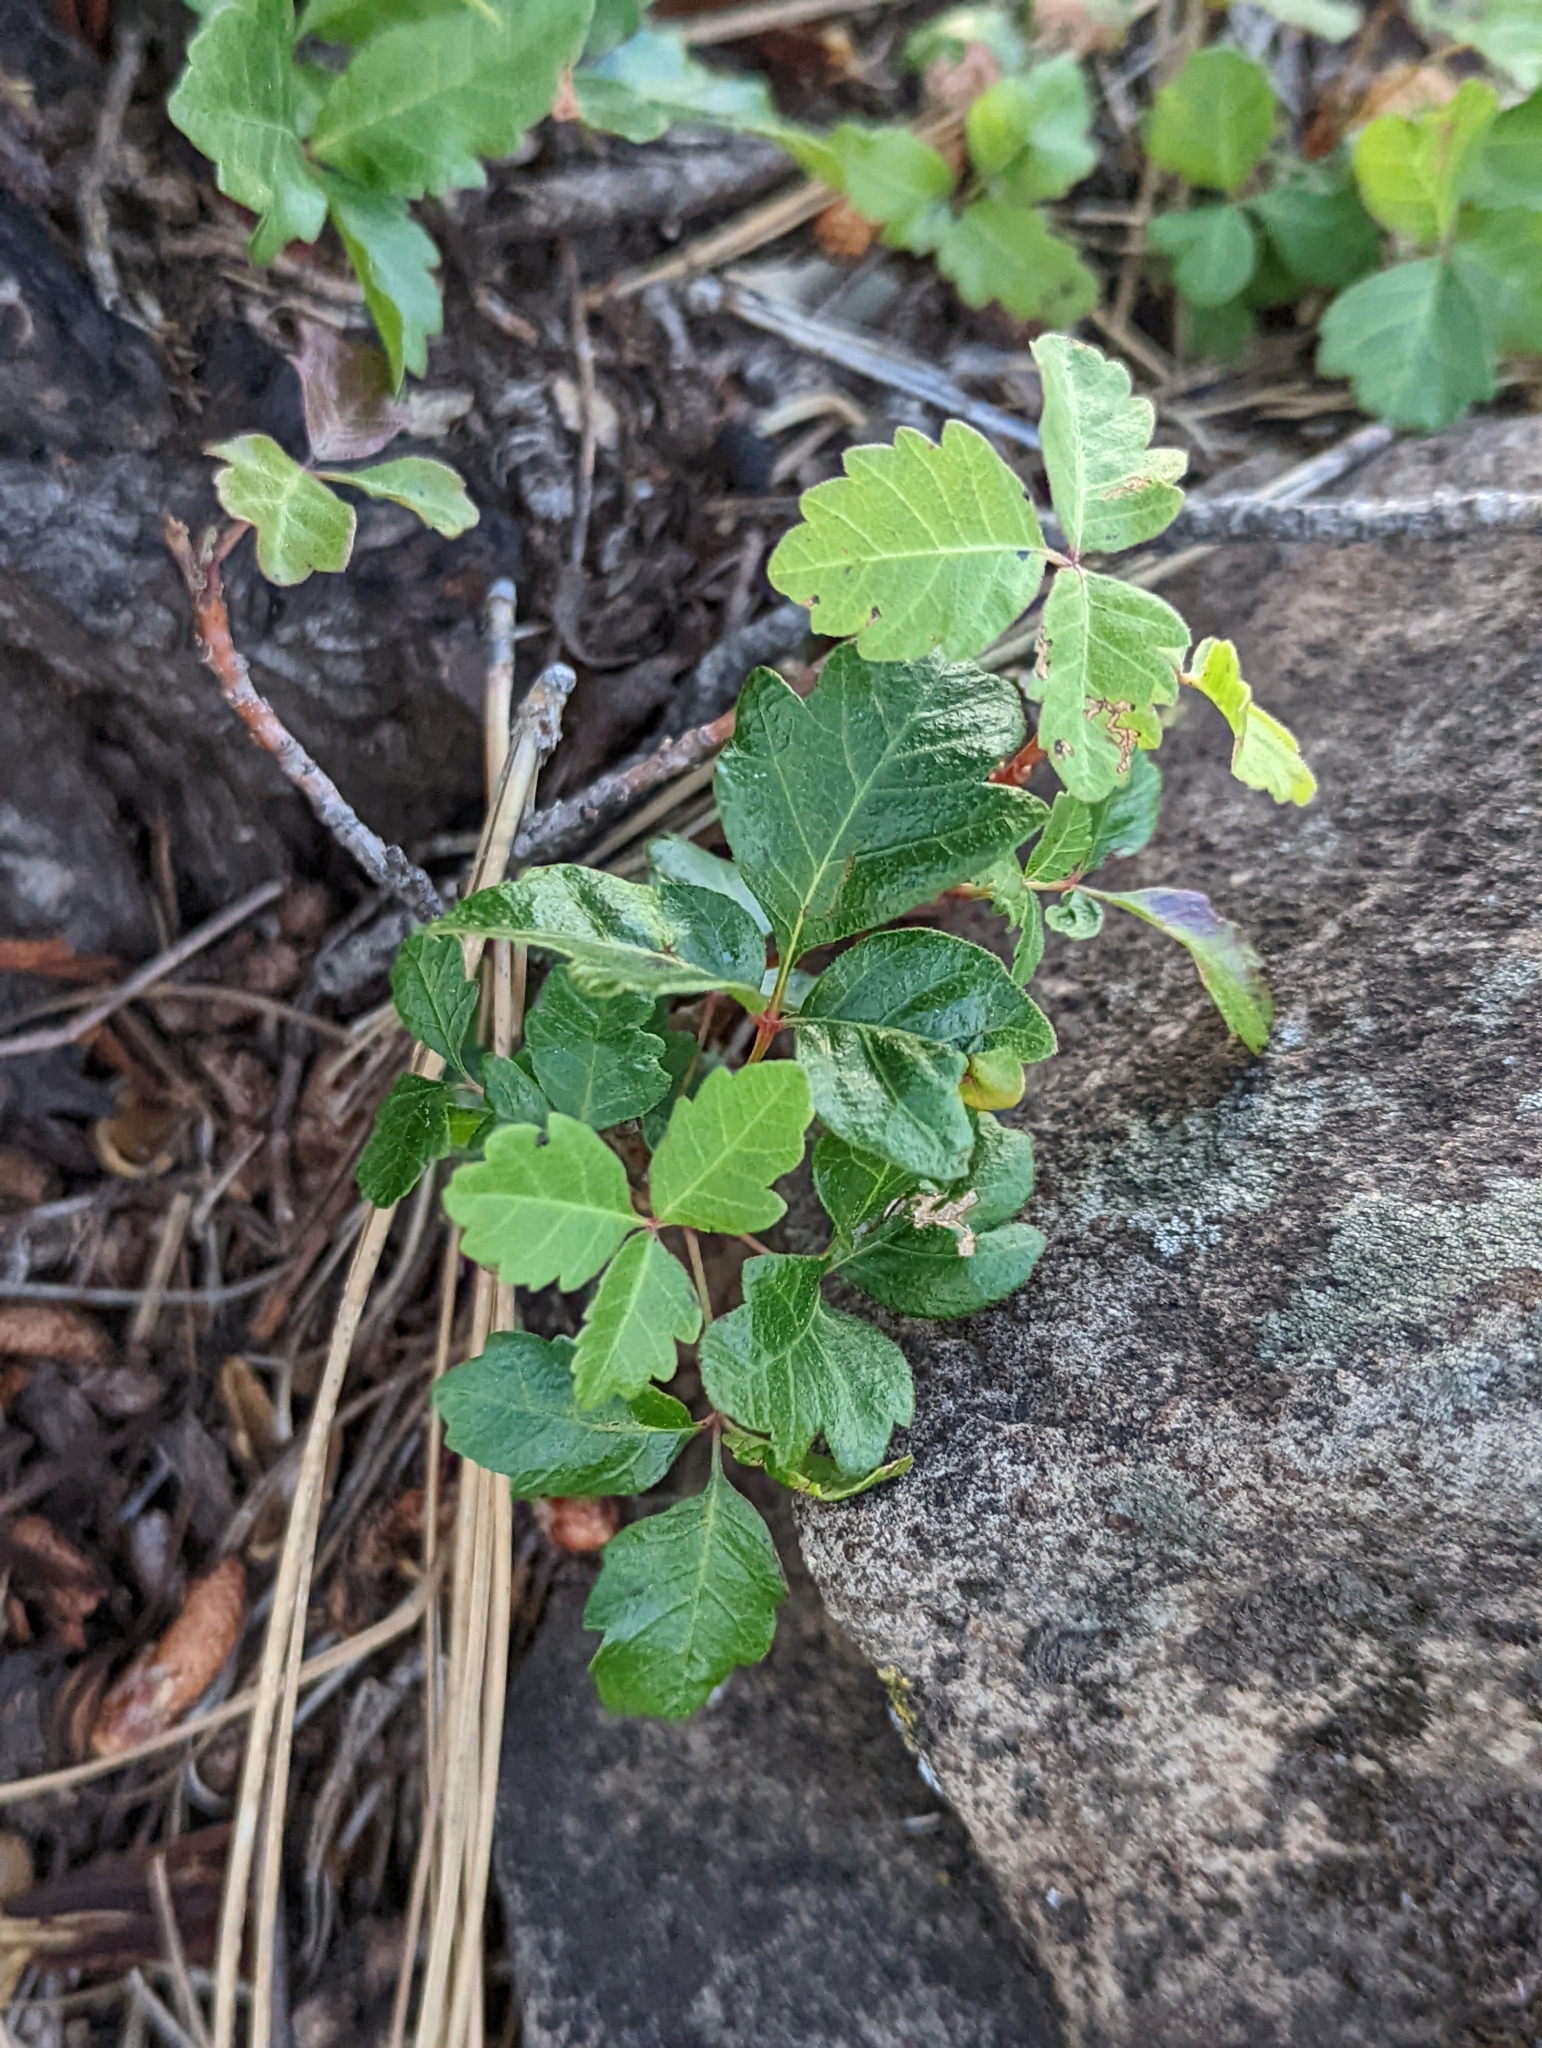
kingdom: Plantae
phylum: Tracheophyta
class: Magnoliopsida
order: Sapindales
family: Anacardiaceae
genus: Toxicodendron
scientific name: Toxicodendron diversilobum
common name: Pacific poison-oak
